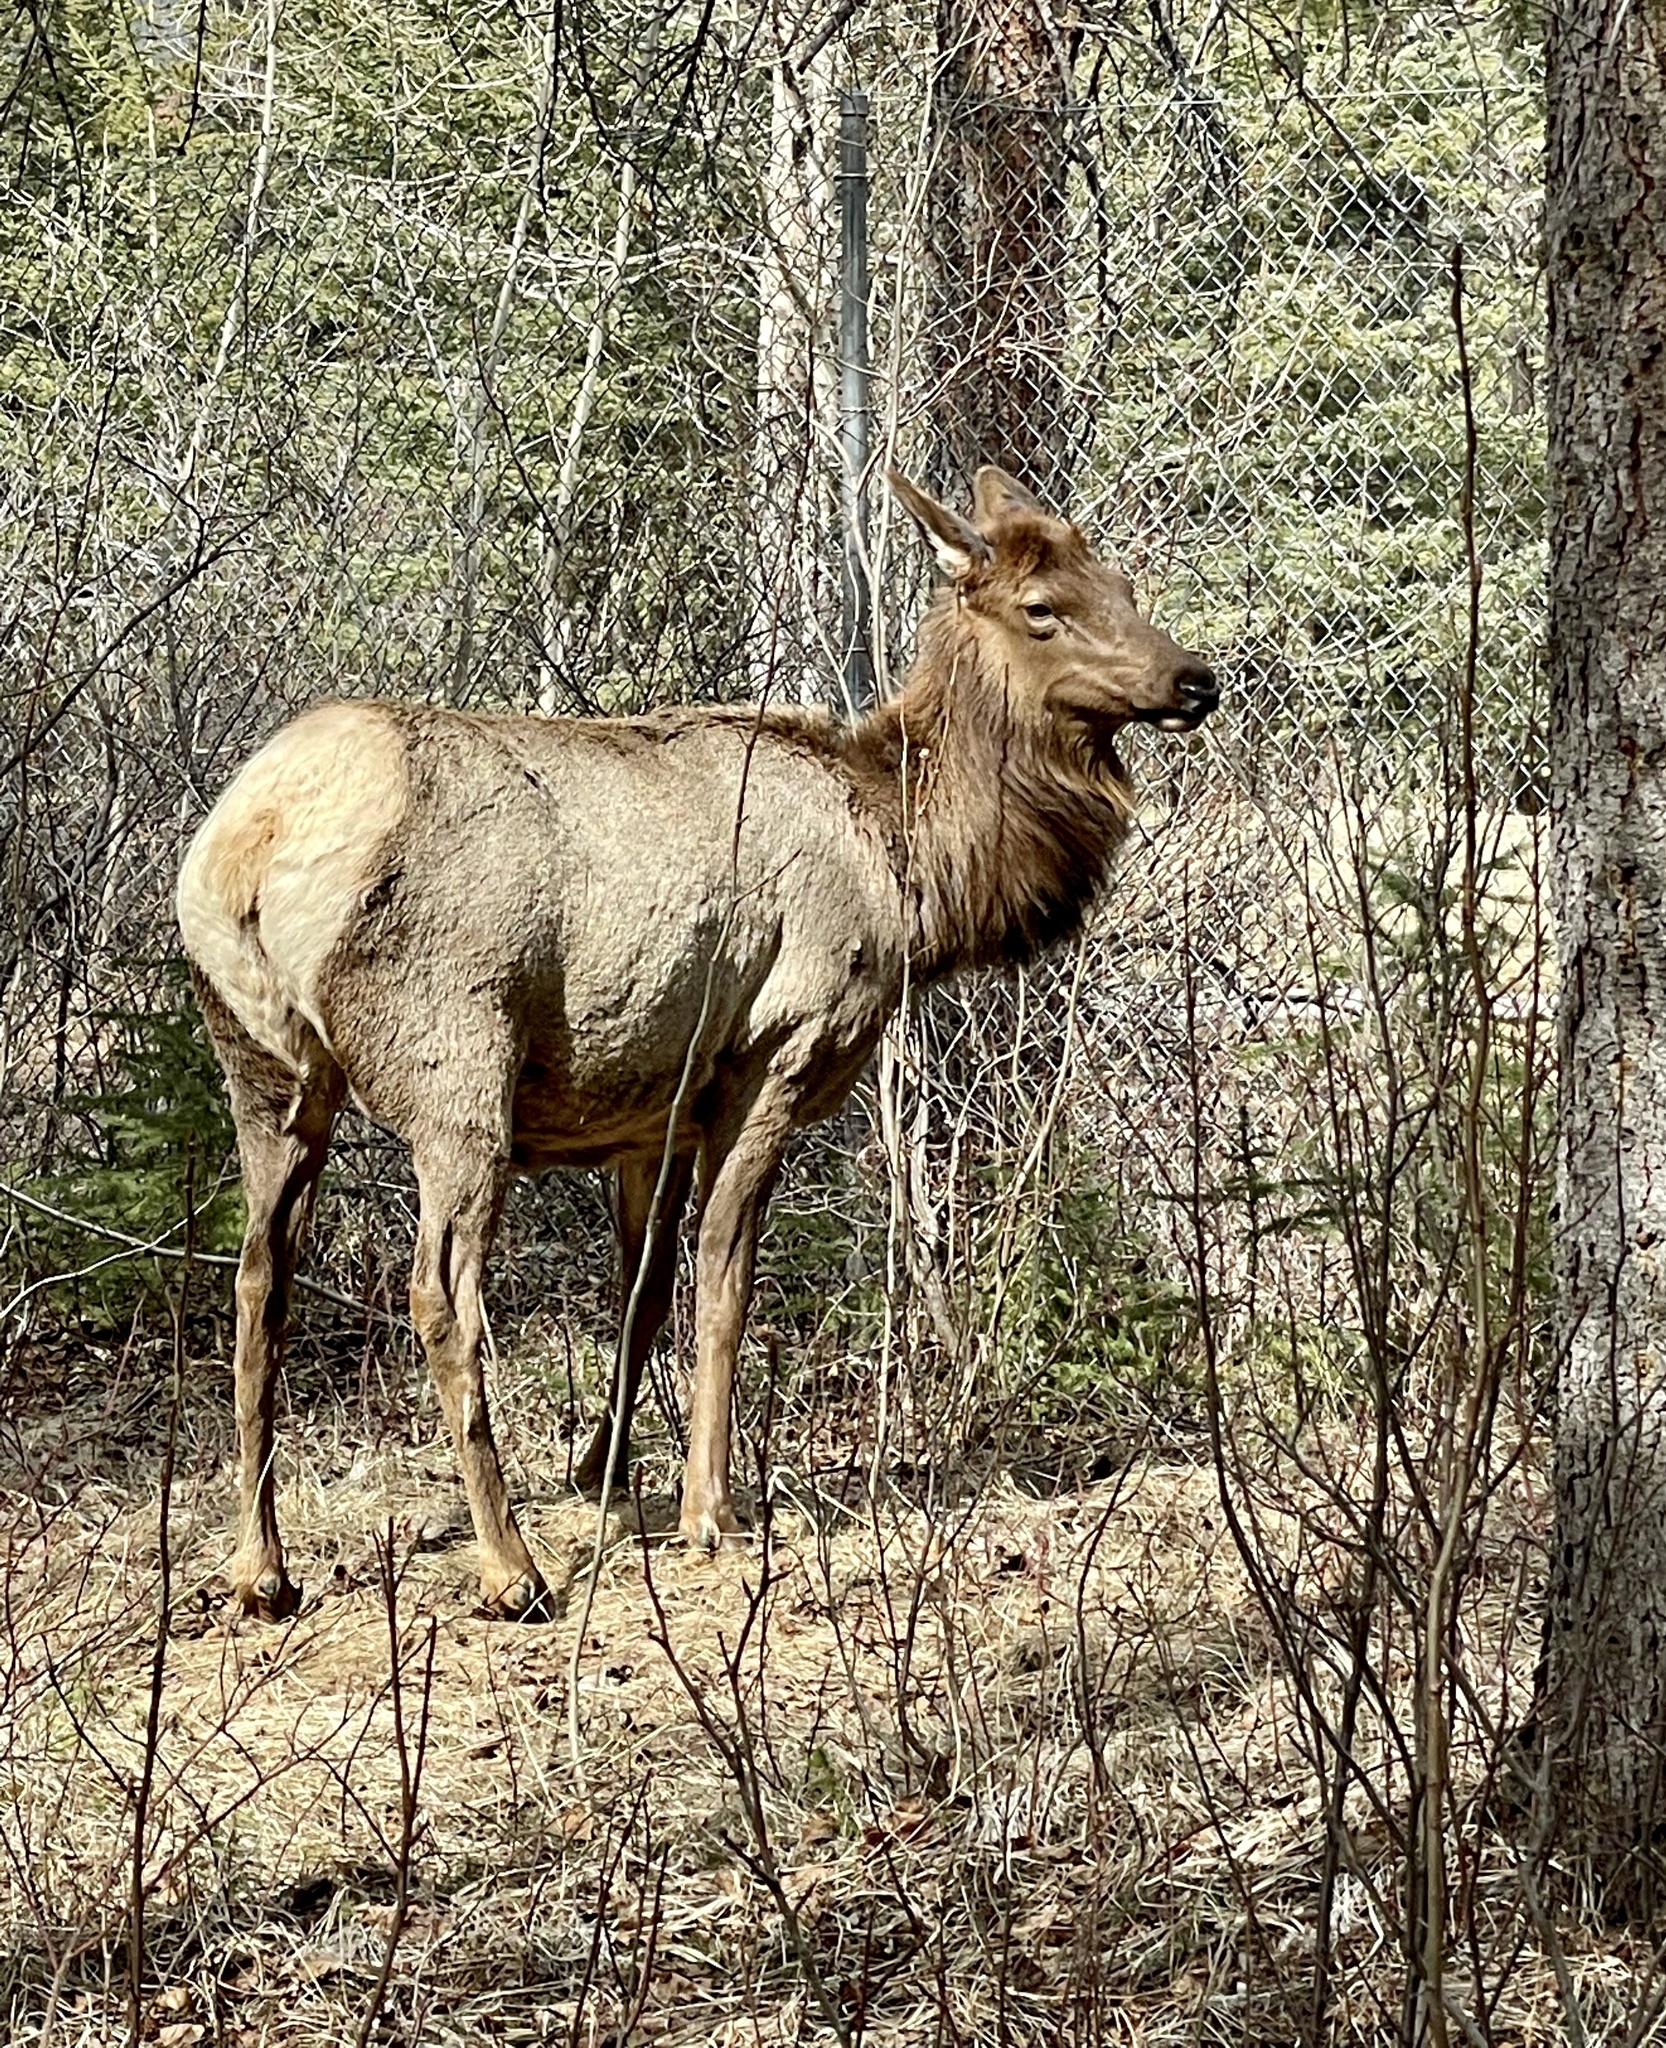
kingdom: Animalia
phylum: Chordata
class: Mammalia
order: Artiodactyla
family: Cervidae
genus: Cervus
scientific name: Cervus elaphus
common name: Red deer
